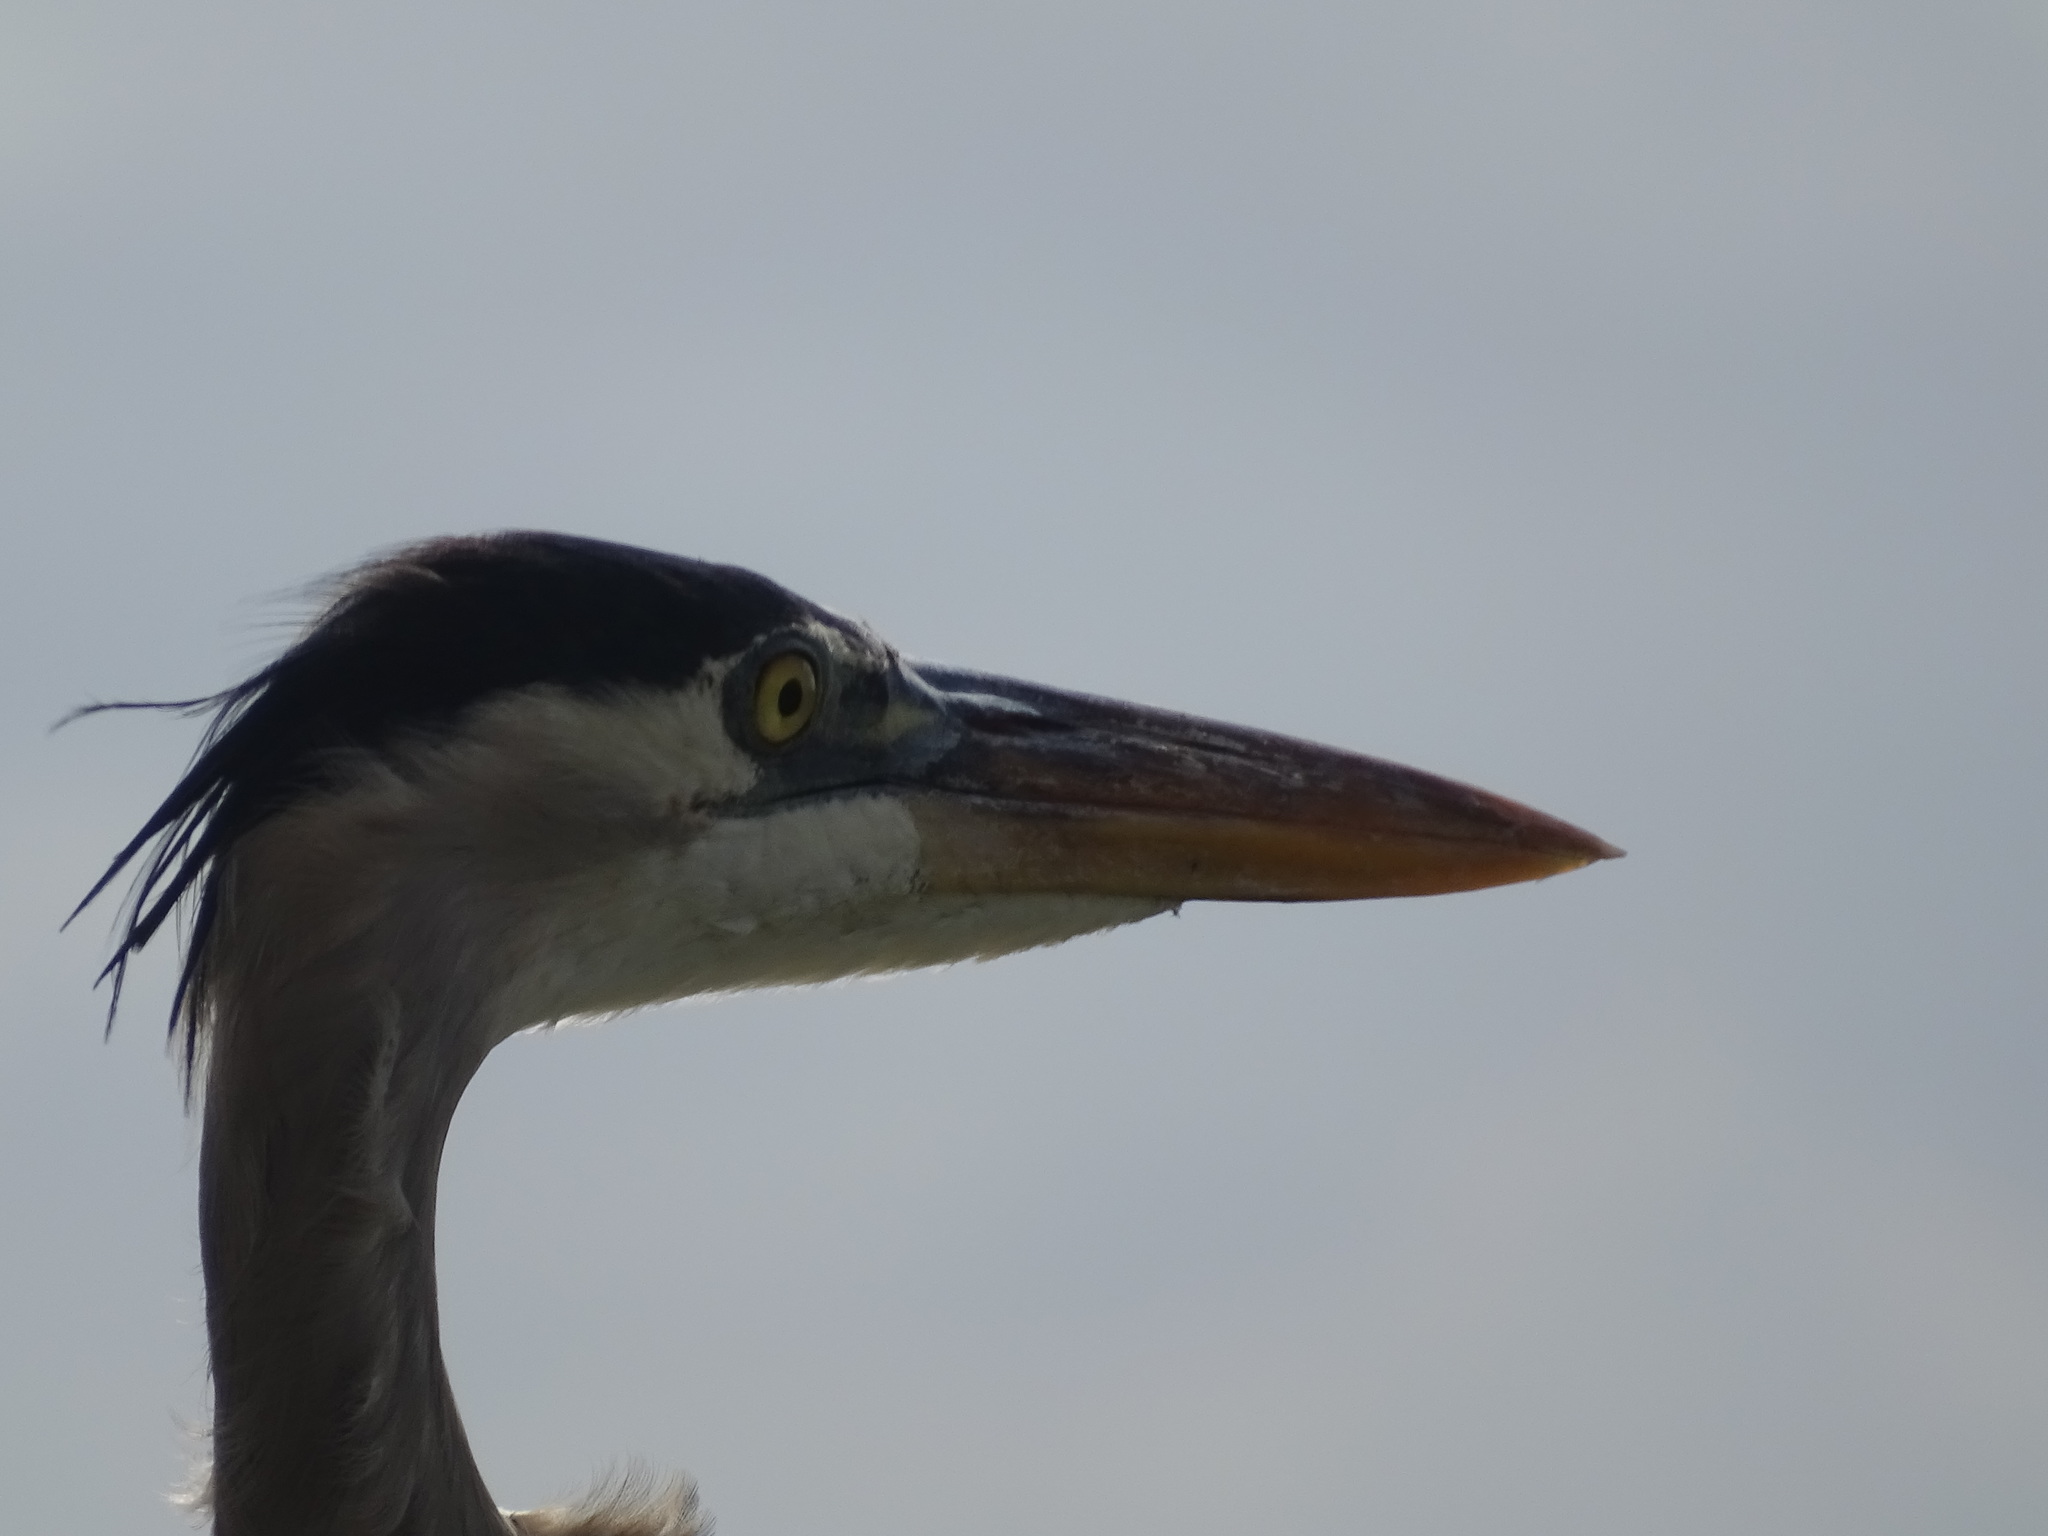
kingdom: Animalia
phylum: Chordata
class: Aves
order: Pelecaniformes
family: Ardeidae
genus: Ardea
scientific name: Ardea herodias
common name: Great blue heron
